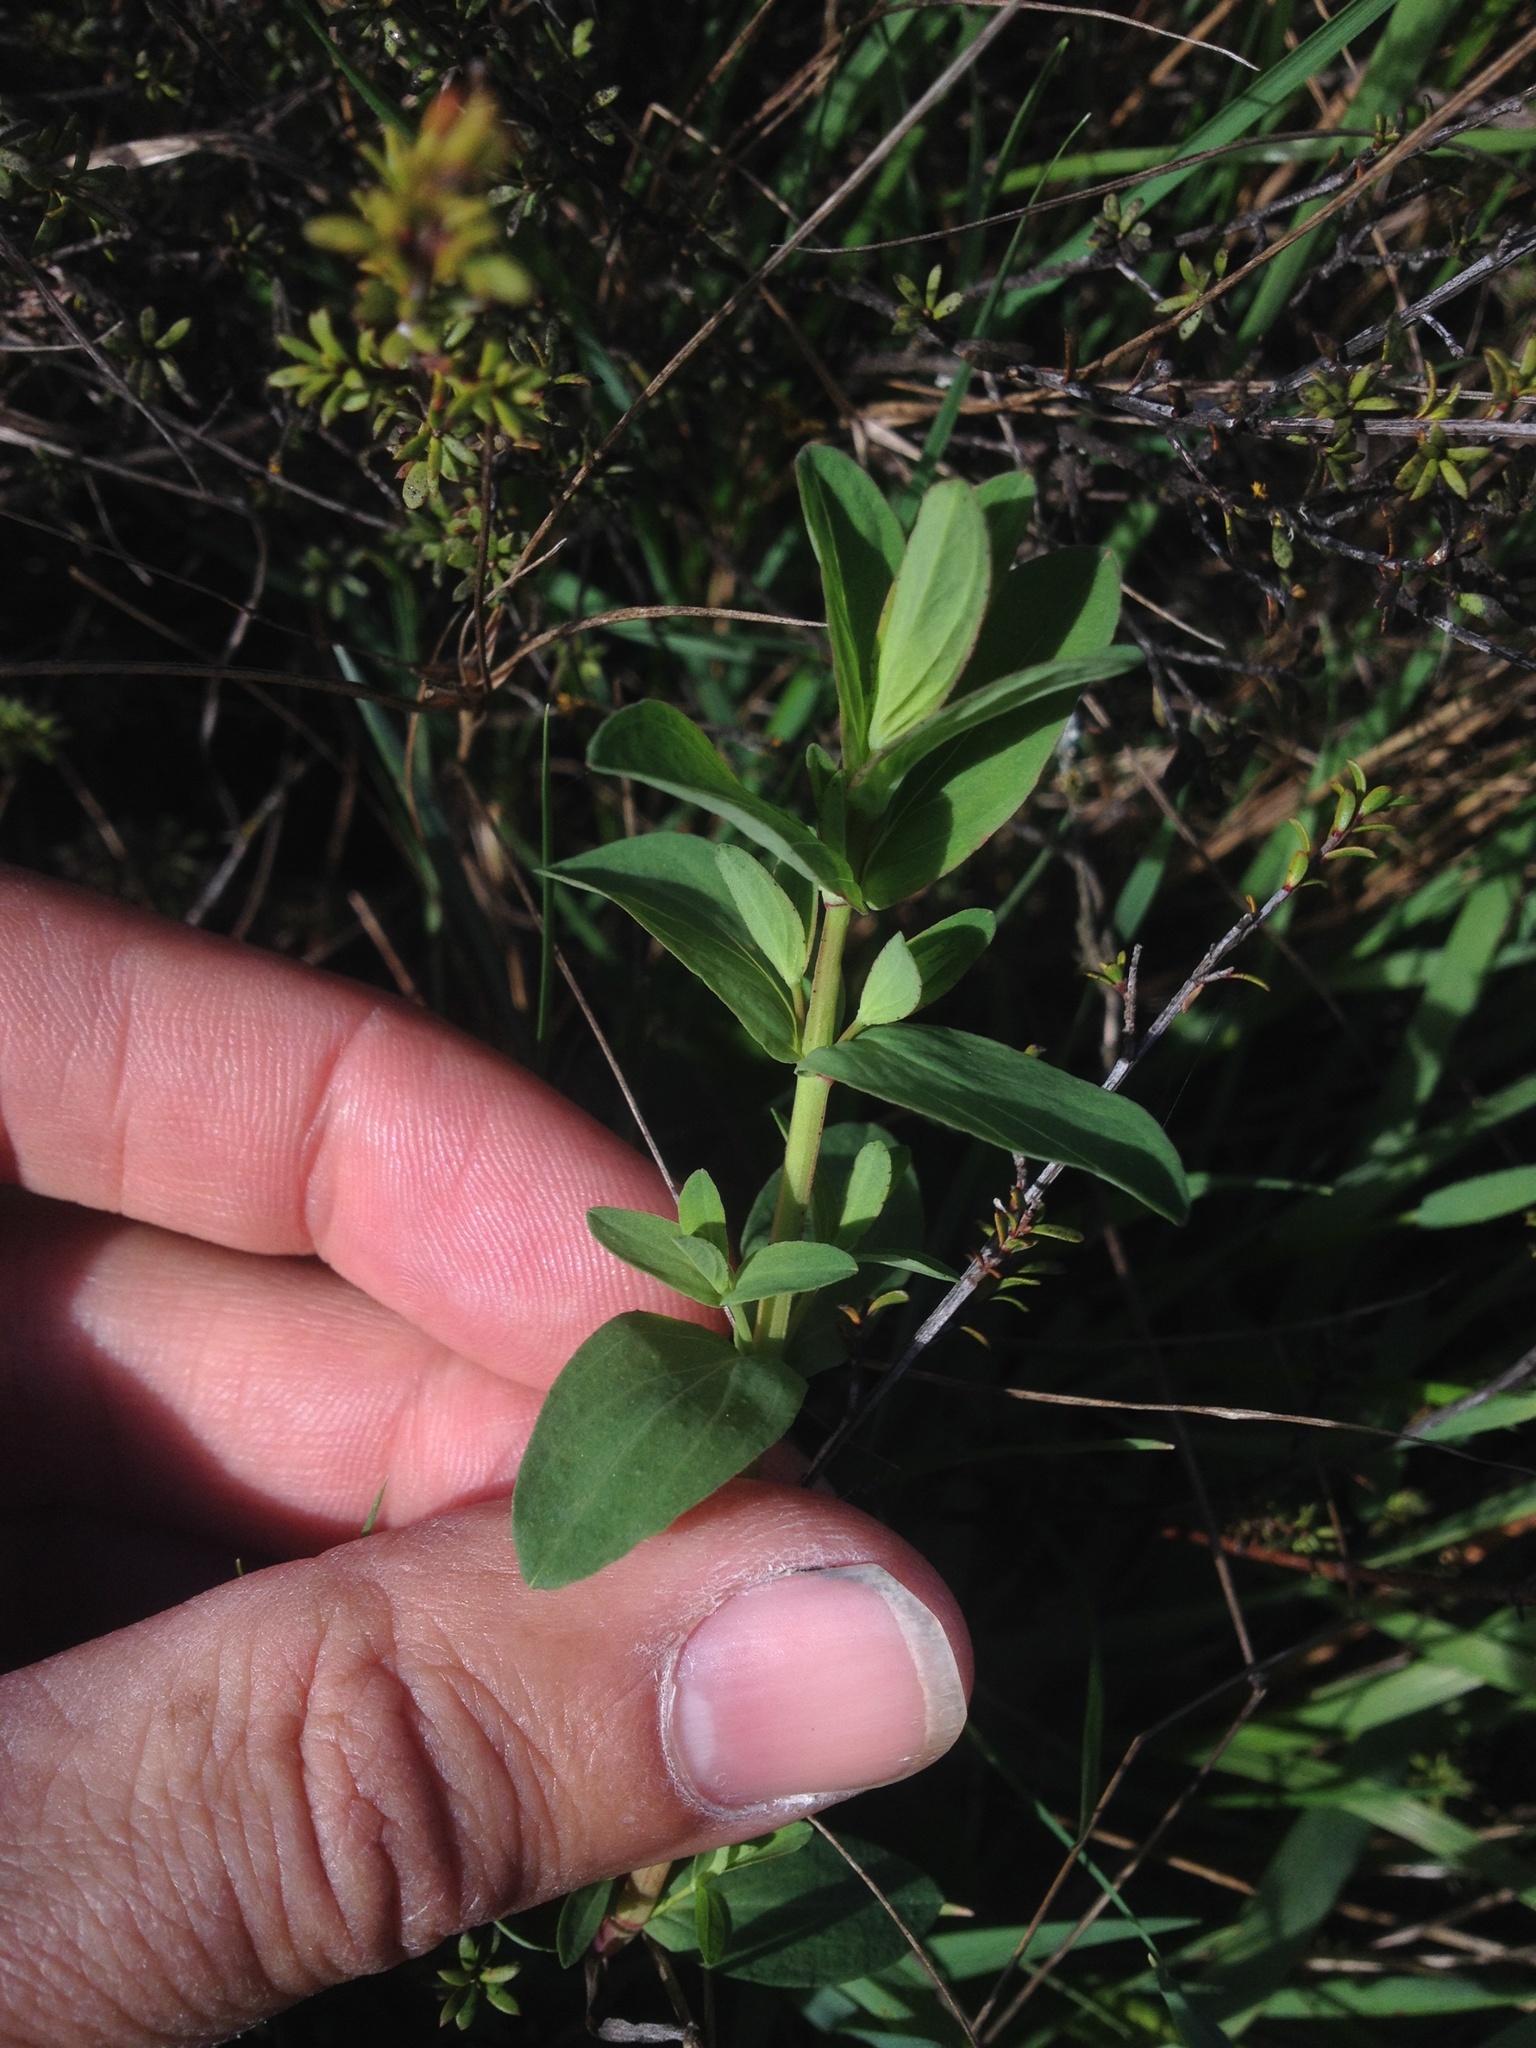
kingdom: Plantae
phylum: Tracheophyta
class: Magnoliopsida
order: Malpighiales
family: Hypericaceae
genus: Hypericum
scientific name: Hypericum perforatum
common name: Common st. johnswort
